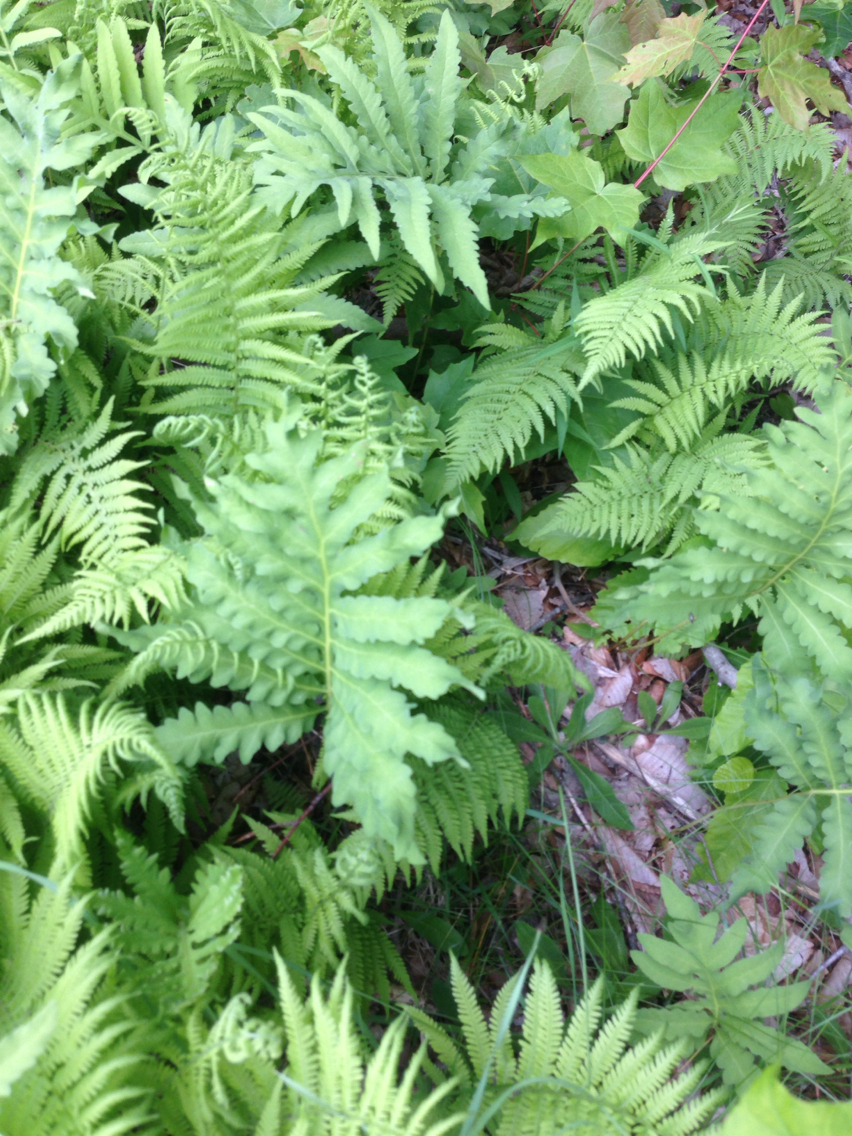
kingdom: Plantae
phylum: Tracheophyta
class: Polypodiopsida
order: Polypodiales
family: Onocleaceae
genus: Onoclea
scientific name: Onoclea sensibilis
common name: Sensitive fern
